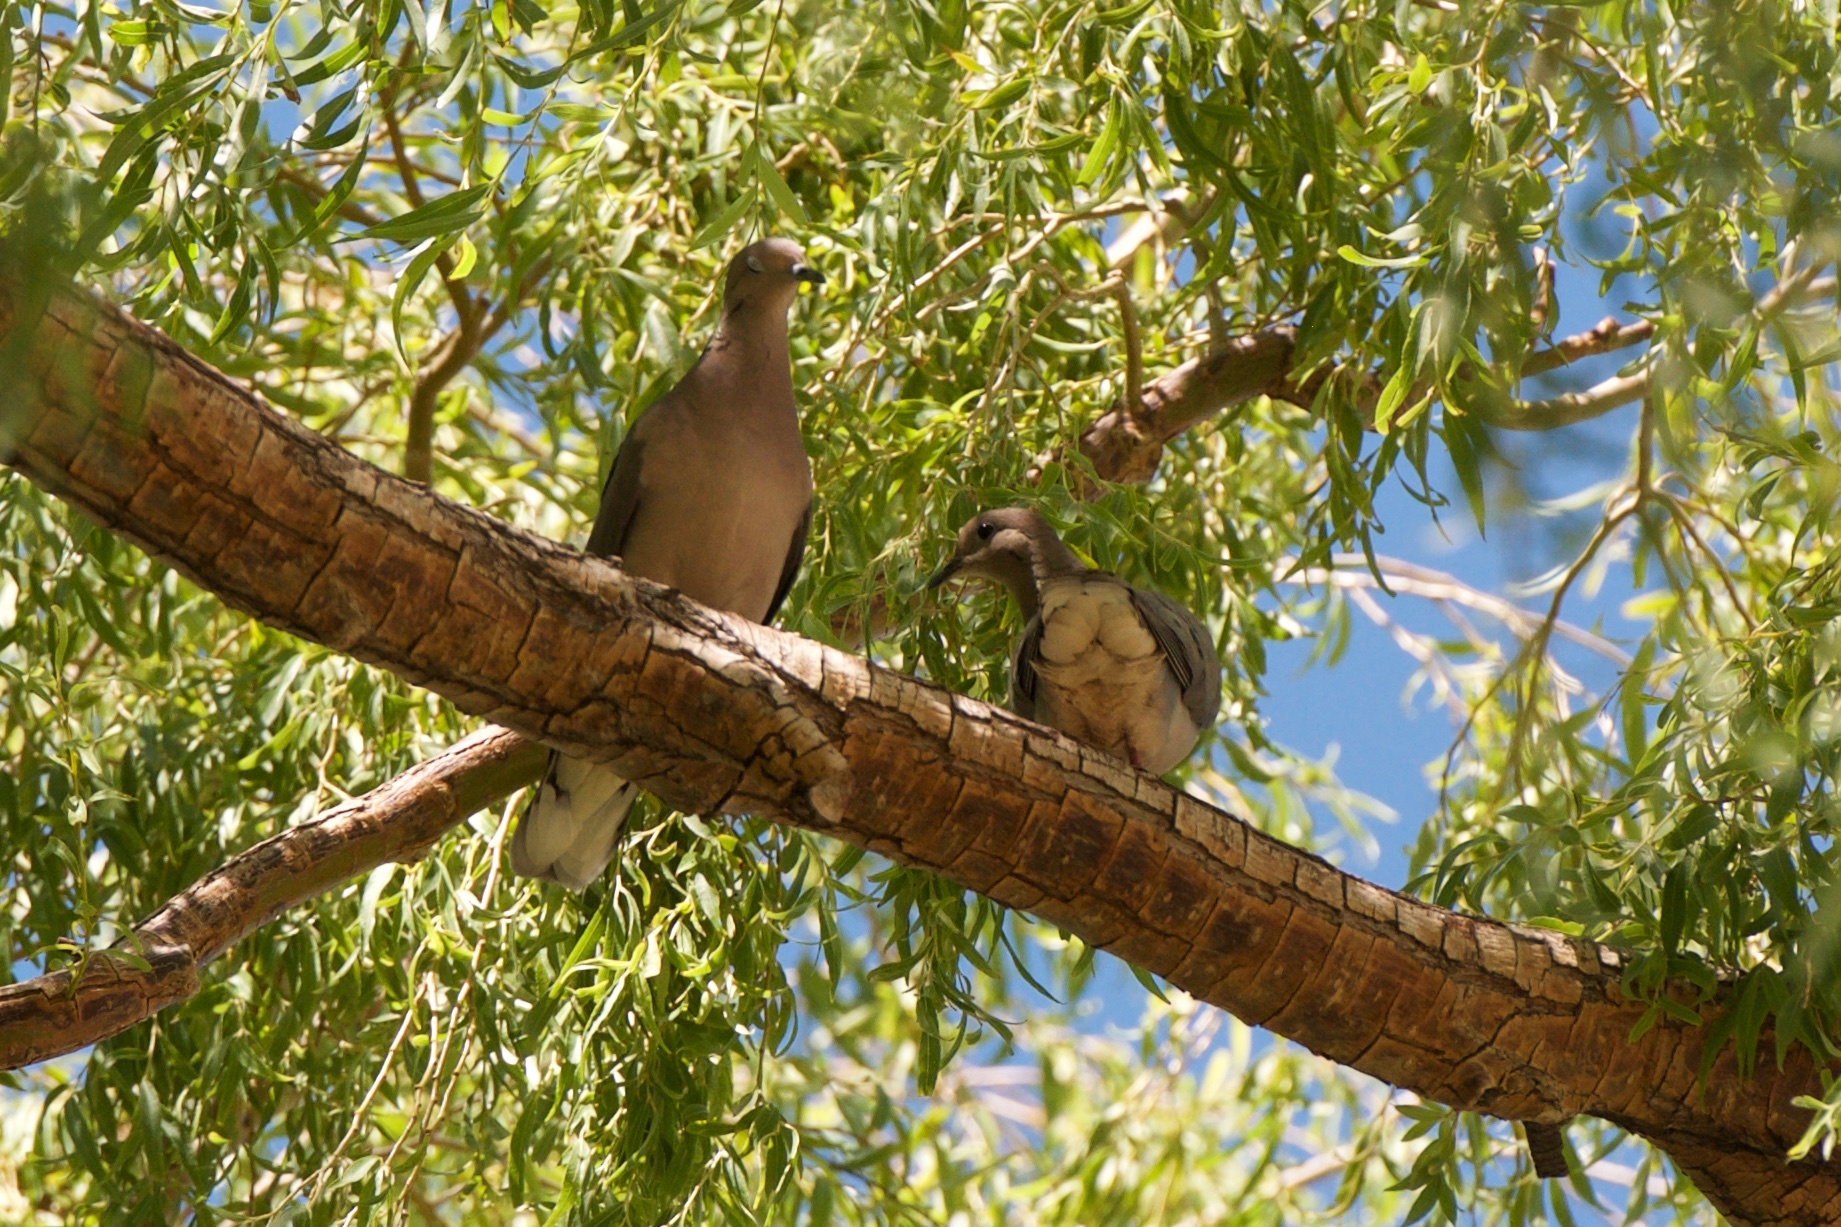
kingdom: Animalia
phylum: Chordata
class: Aves
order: Columbiformes
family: Columbidae
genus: Zenaida
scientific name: Zenaida auriculata
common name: Eared dove
